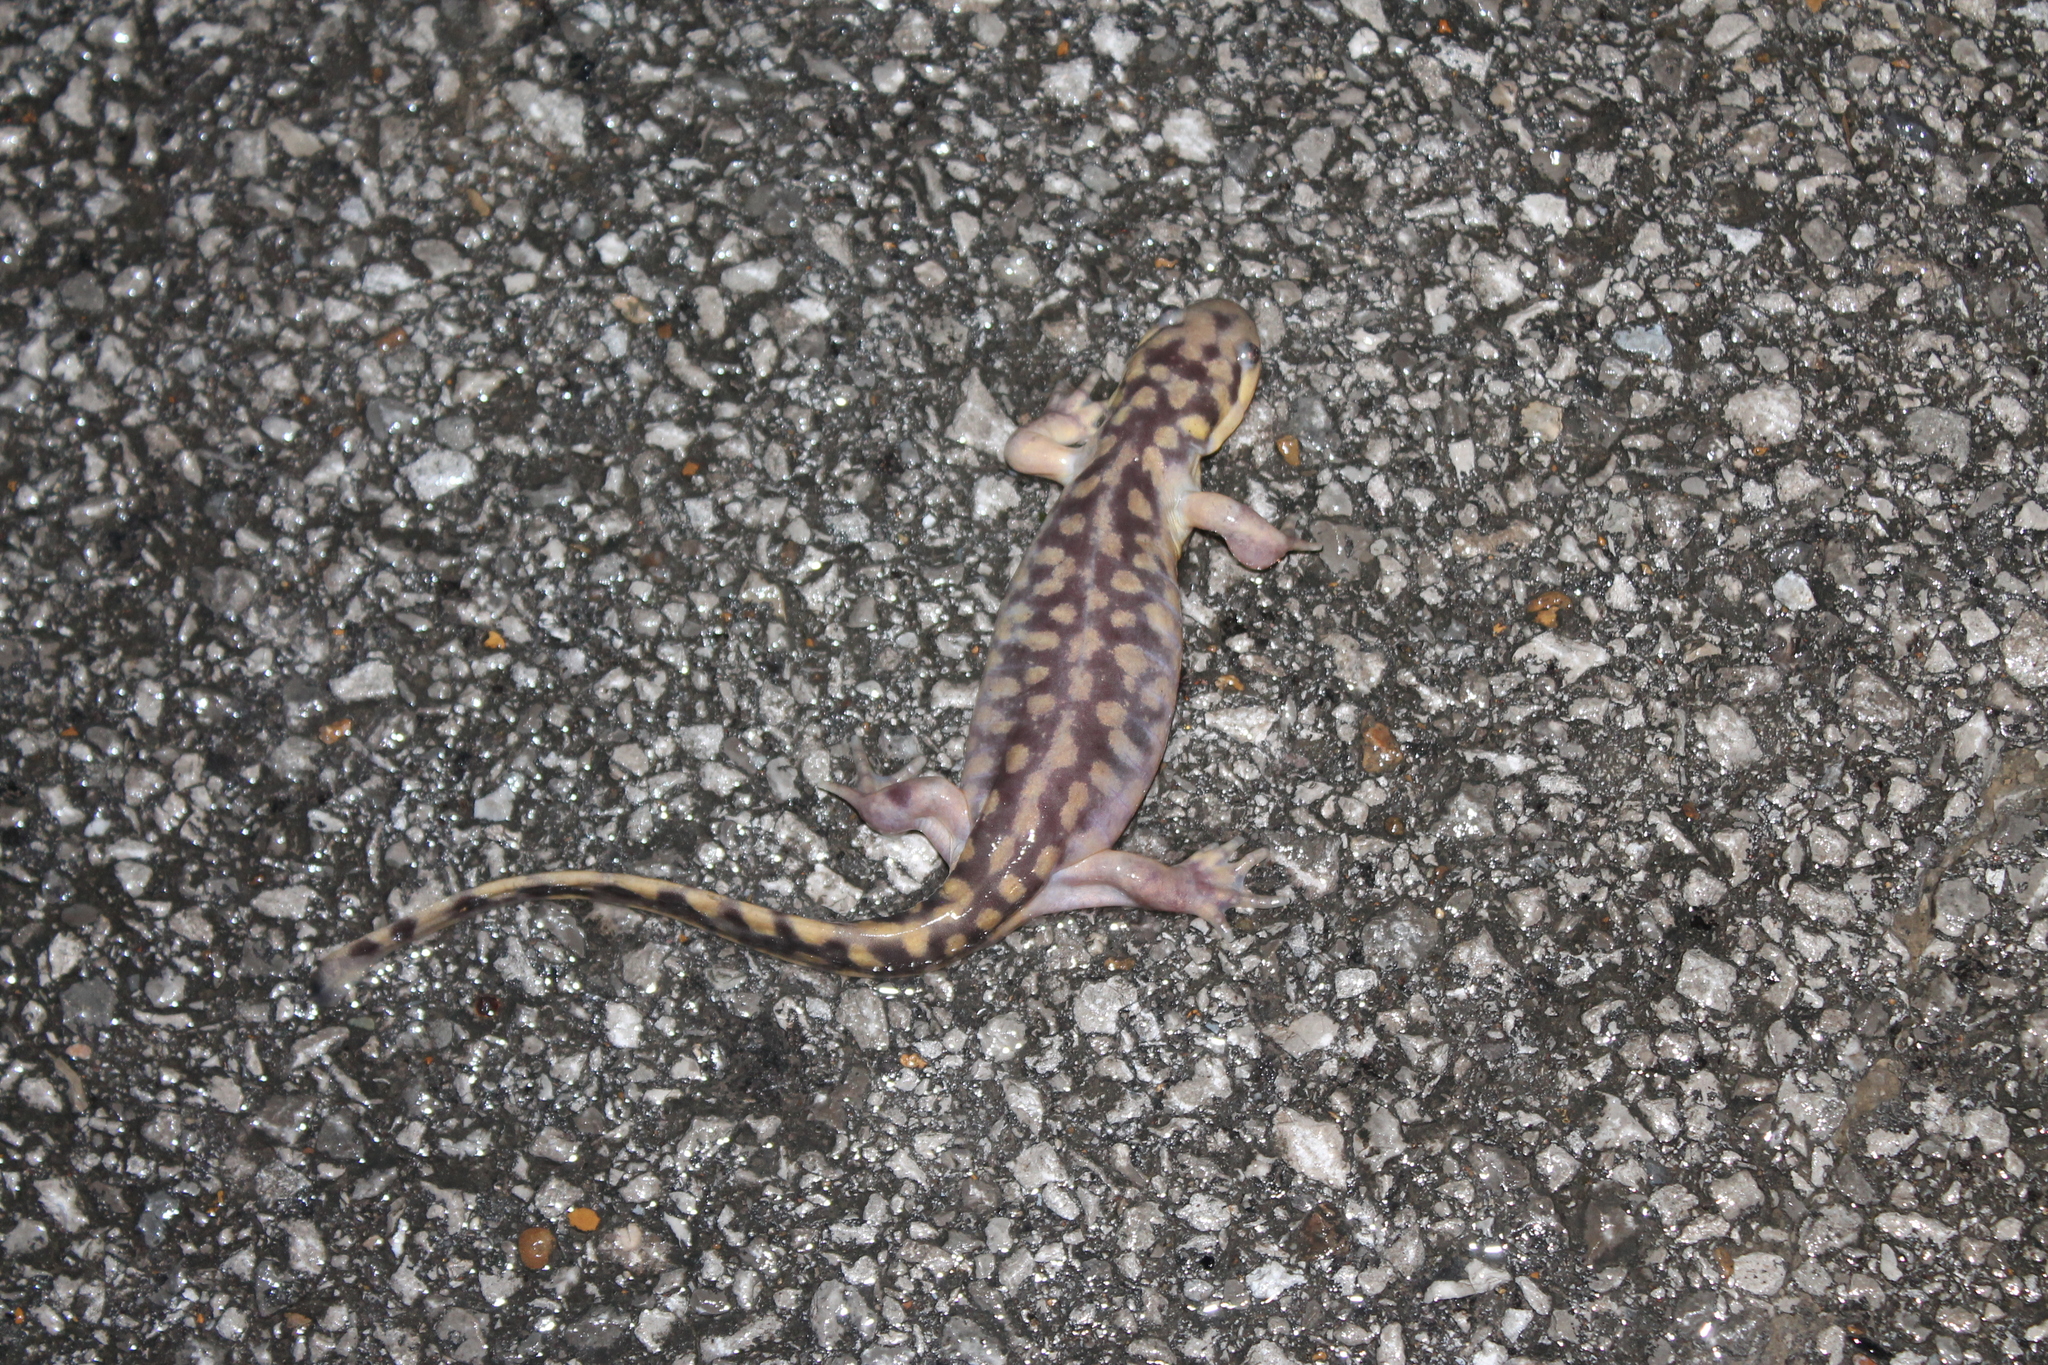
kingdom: Animalia
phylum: Chordata
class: Amphibia
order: Caudata
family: Ambystomatidae
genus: Ambystoma
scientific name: Ambystoma tigrinum
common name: Tiger salamander
